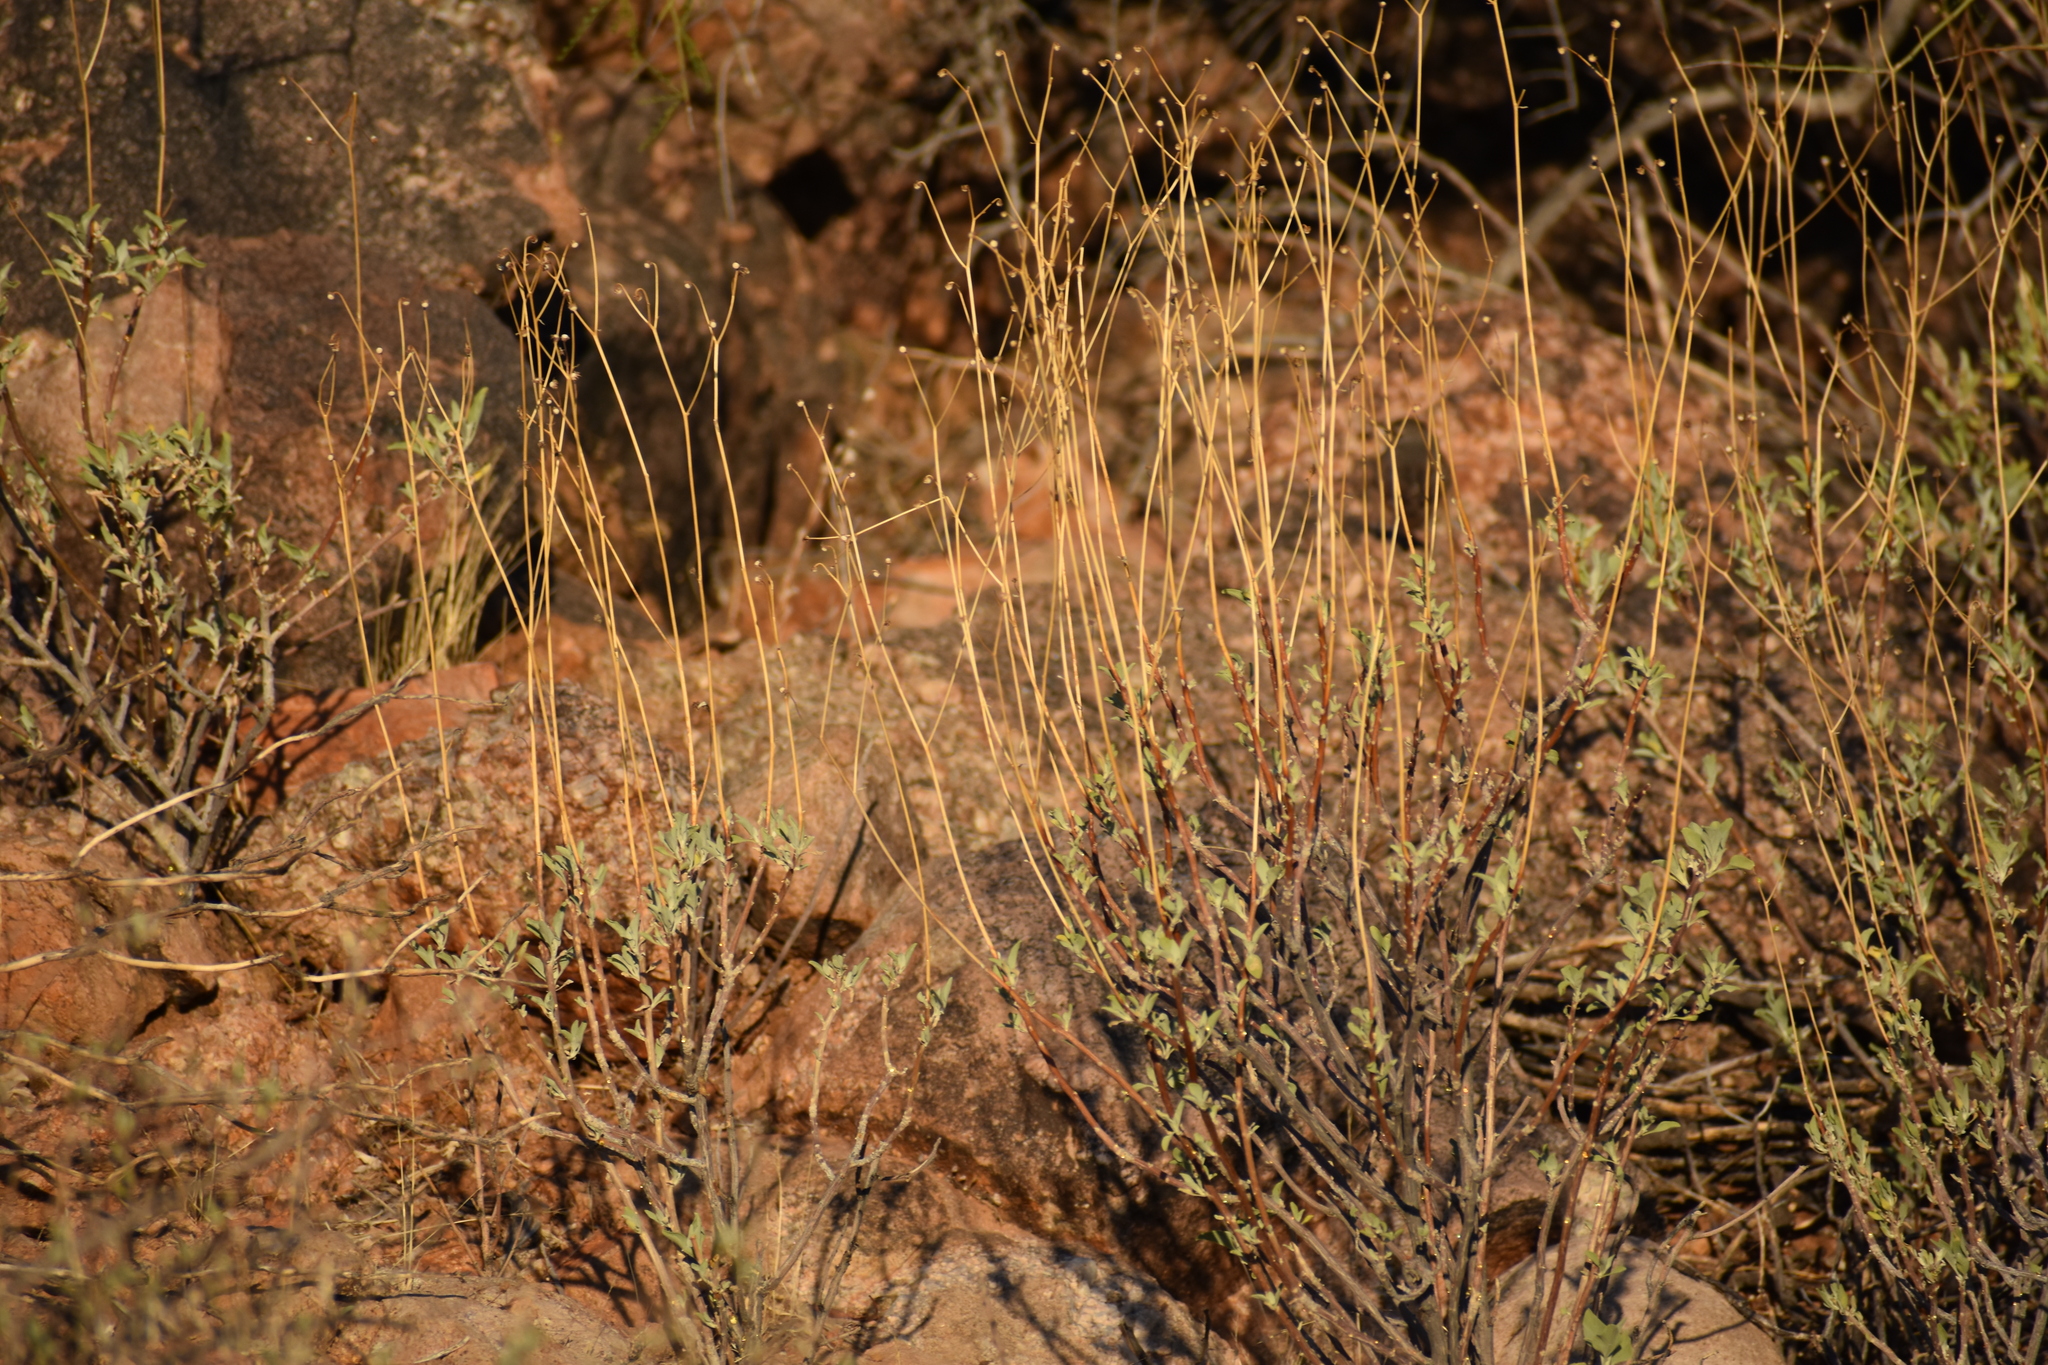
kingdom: Plantae
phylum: Tracheophyta
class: Magnoliopsida
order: Asterales
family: Asteraceae
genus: Encelia
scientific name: Encelia farinosa
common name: Brittlebush
